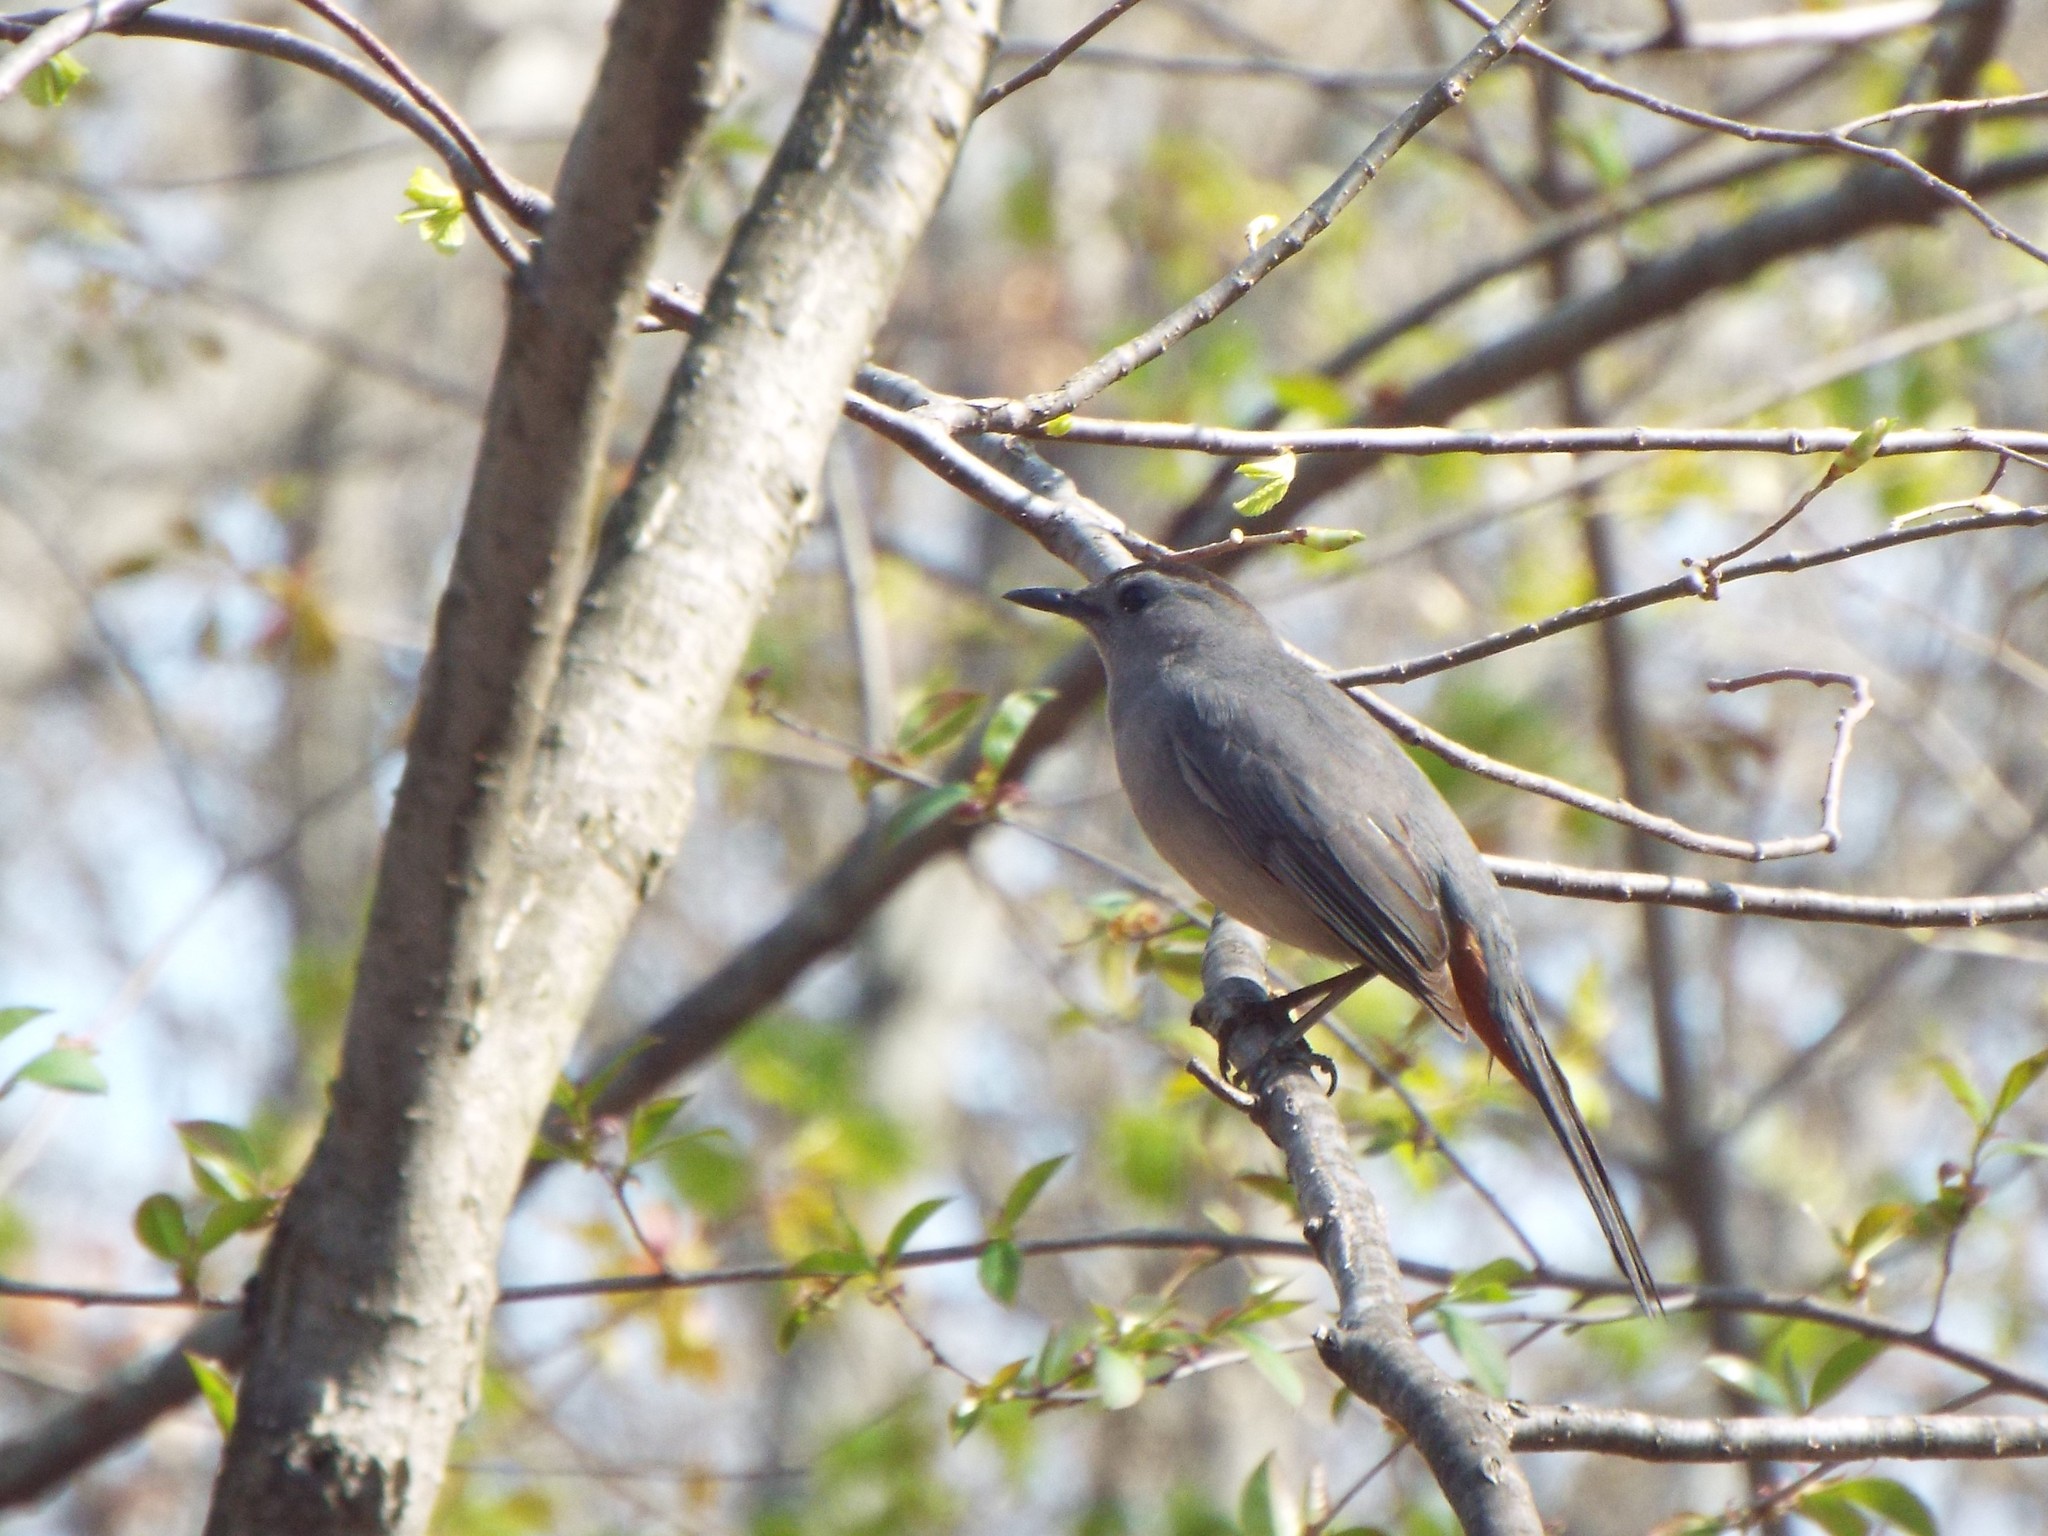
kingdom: Animalia
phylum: Chordata
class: Aves
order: Passeriformes
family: Mimidae
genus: Dumetella
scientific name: Dumetella carolinensis
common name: Gray catbird
